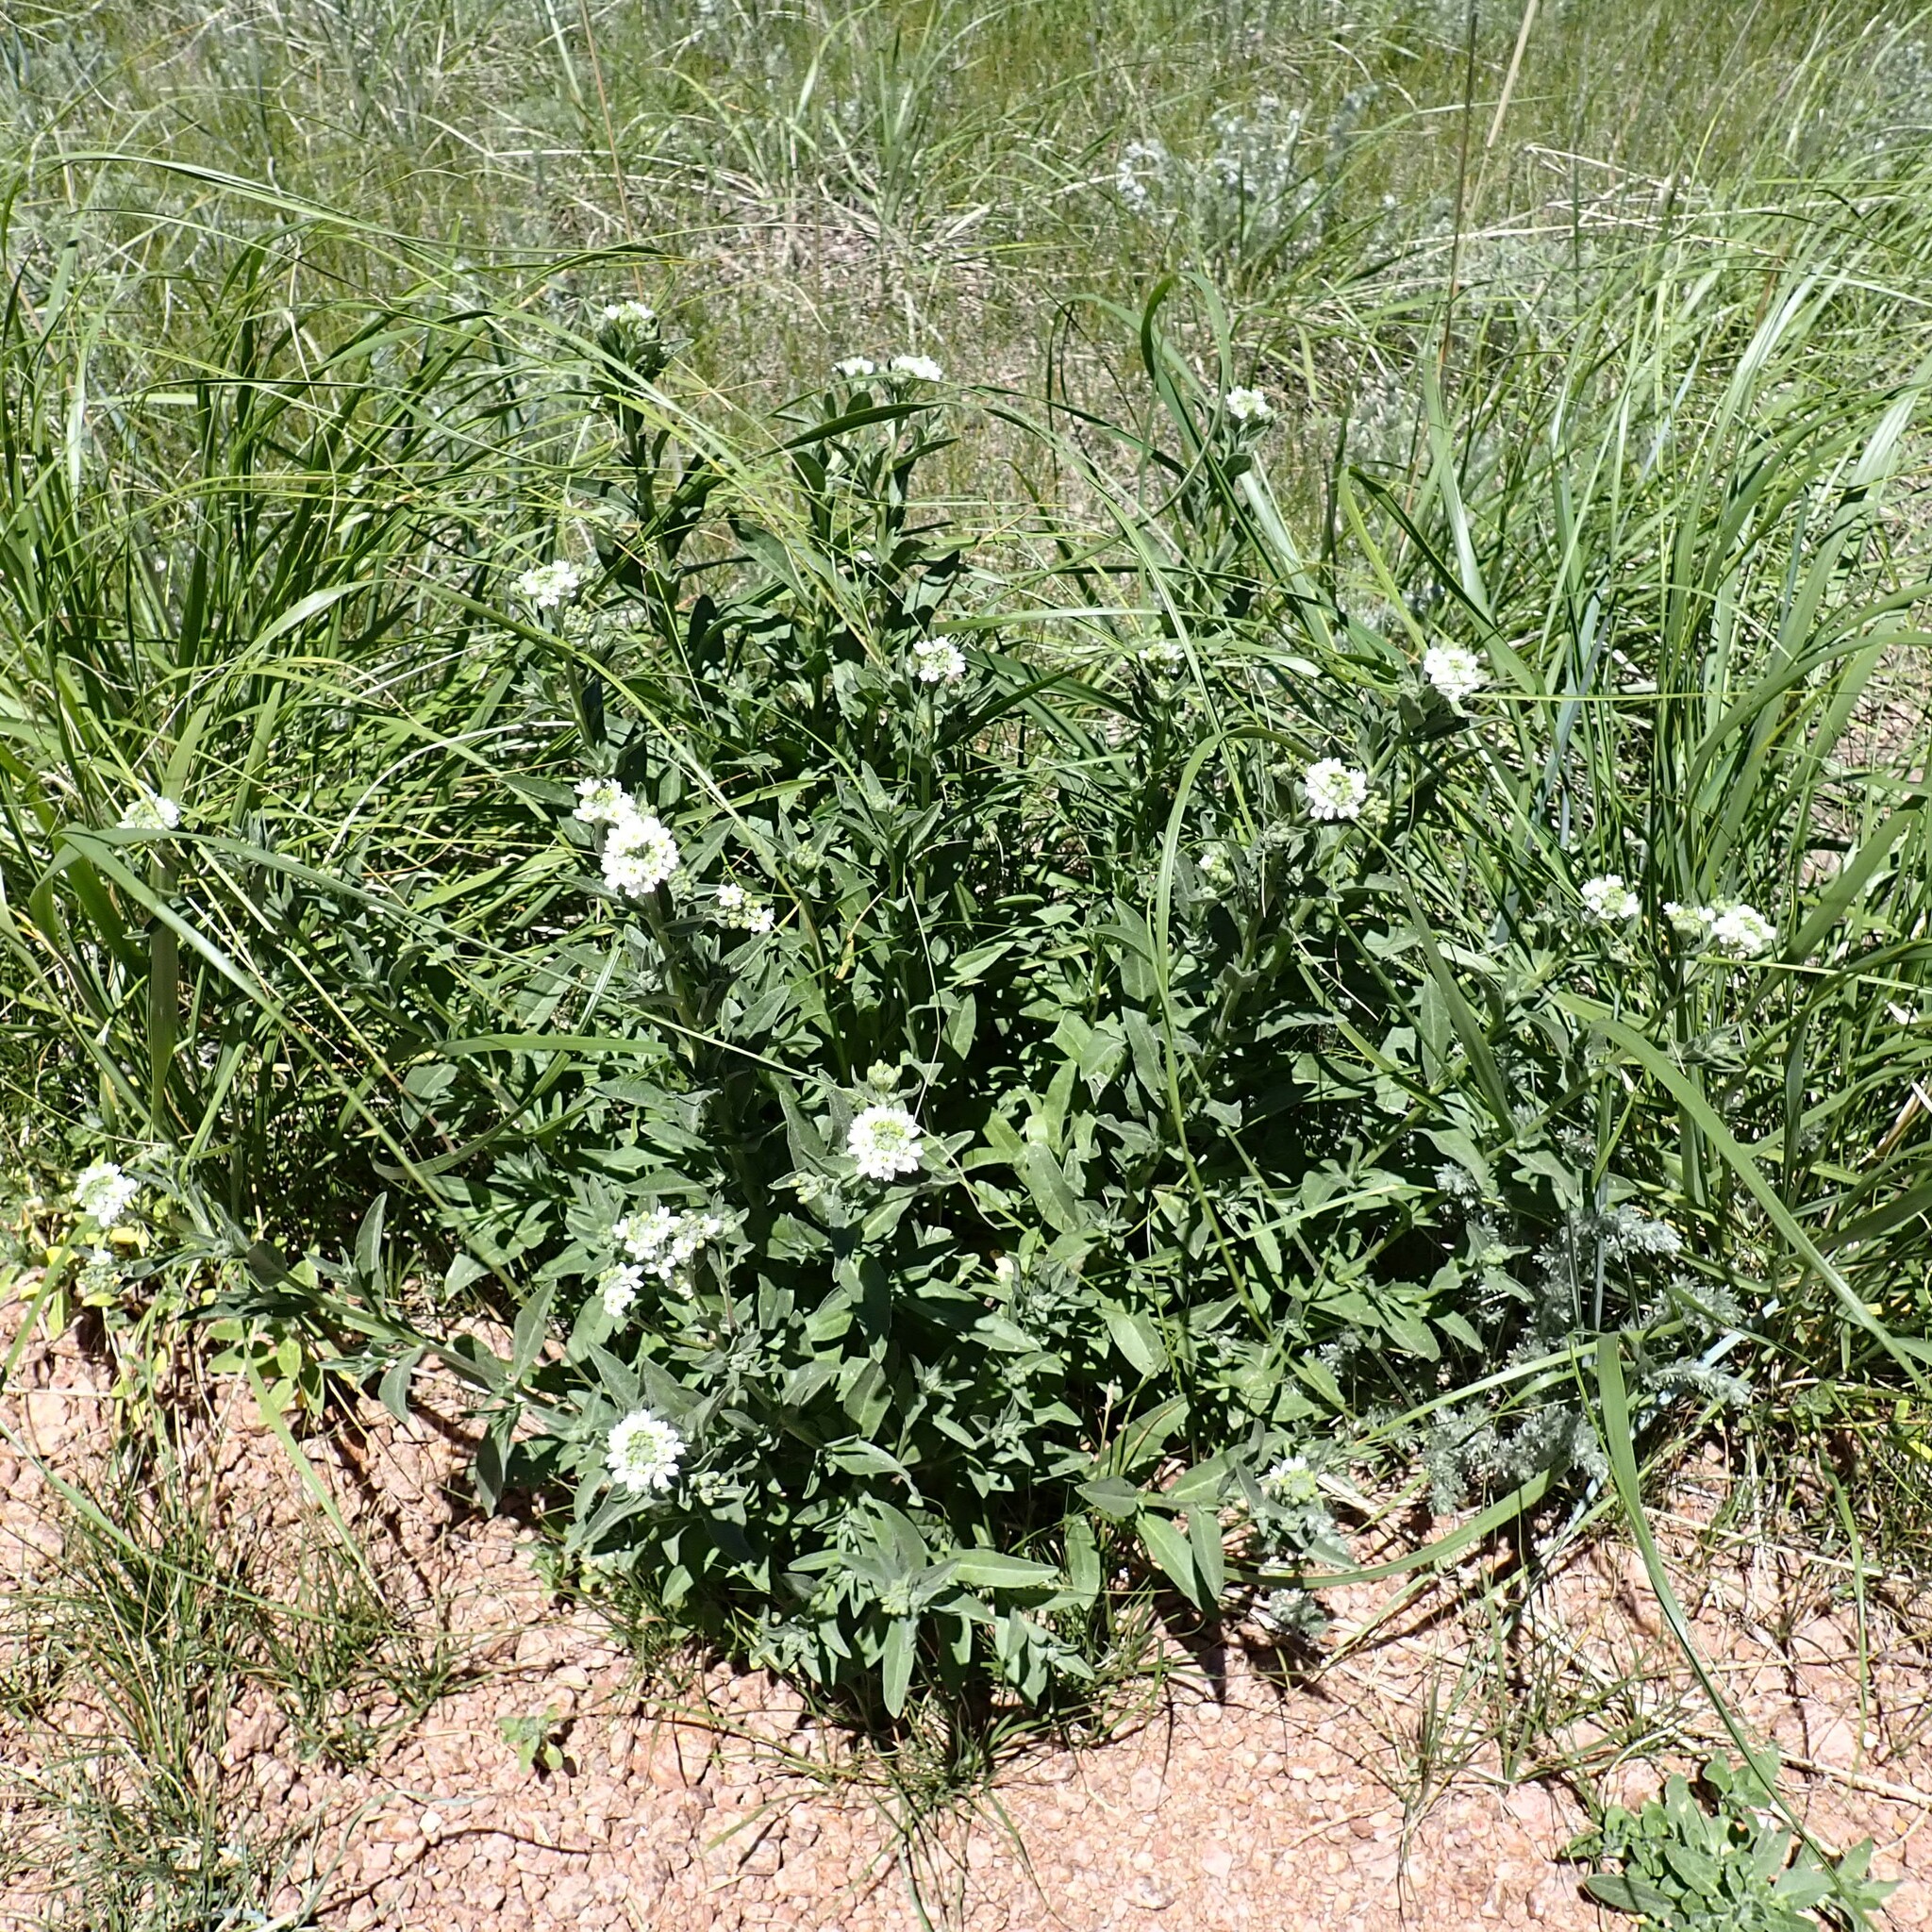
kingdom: Plantae
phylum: Tracheophyta
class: Magnoliopsida
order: Brassicales
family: Brassicaceae
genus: Berteroa
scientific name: Berteroa incana
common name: Hoary alison
